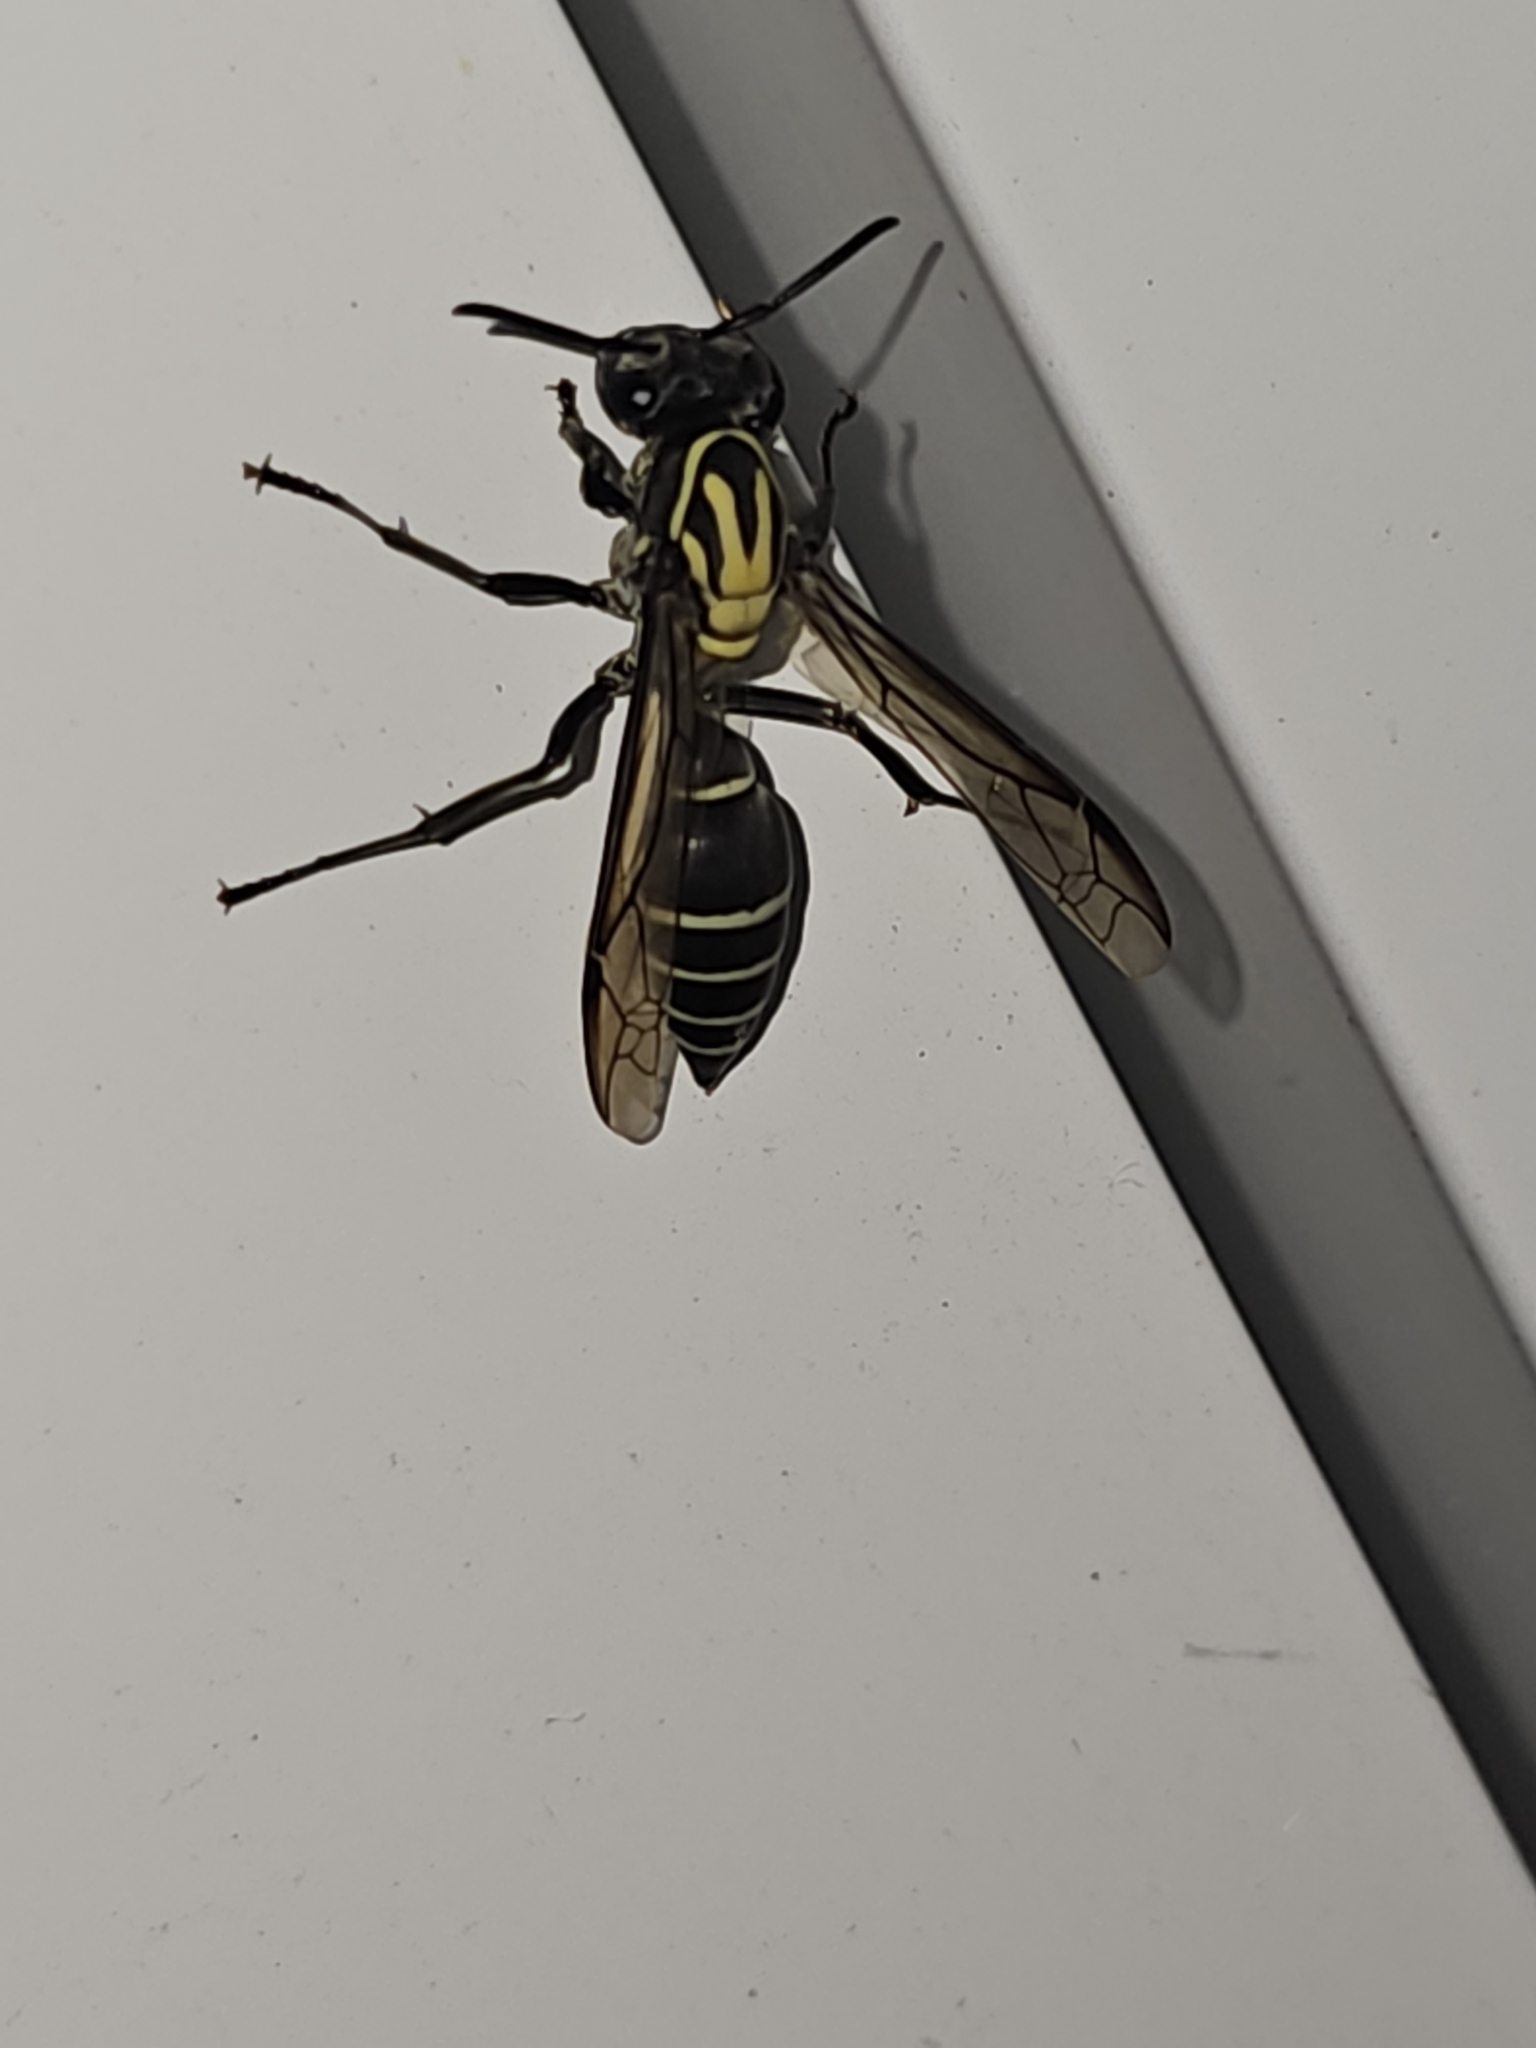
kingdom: Animalia
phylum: Arthropoda
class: Insecta
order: Hymenoptera
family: Eumenidae
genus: Polybia
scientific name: Polybia striata
